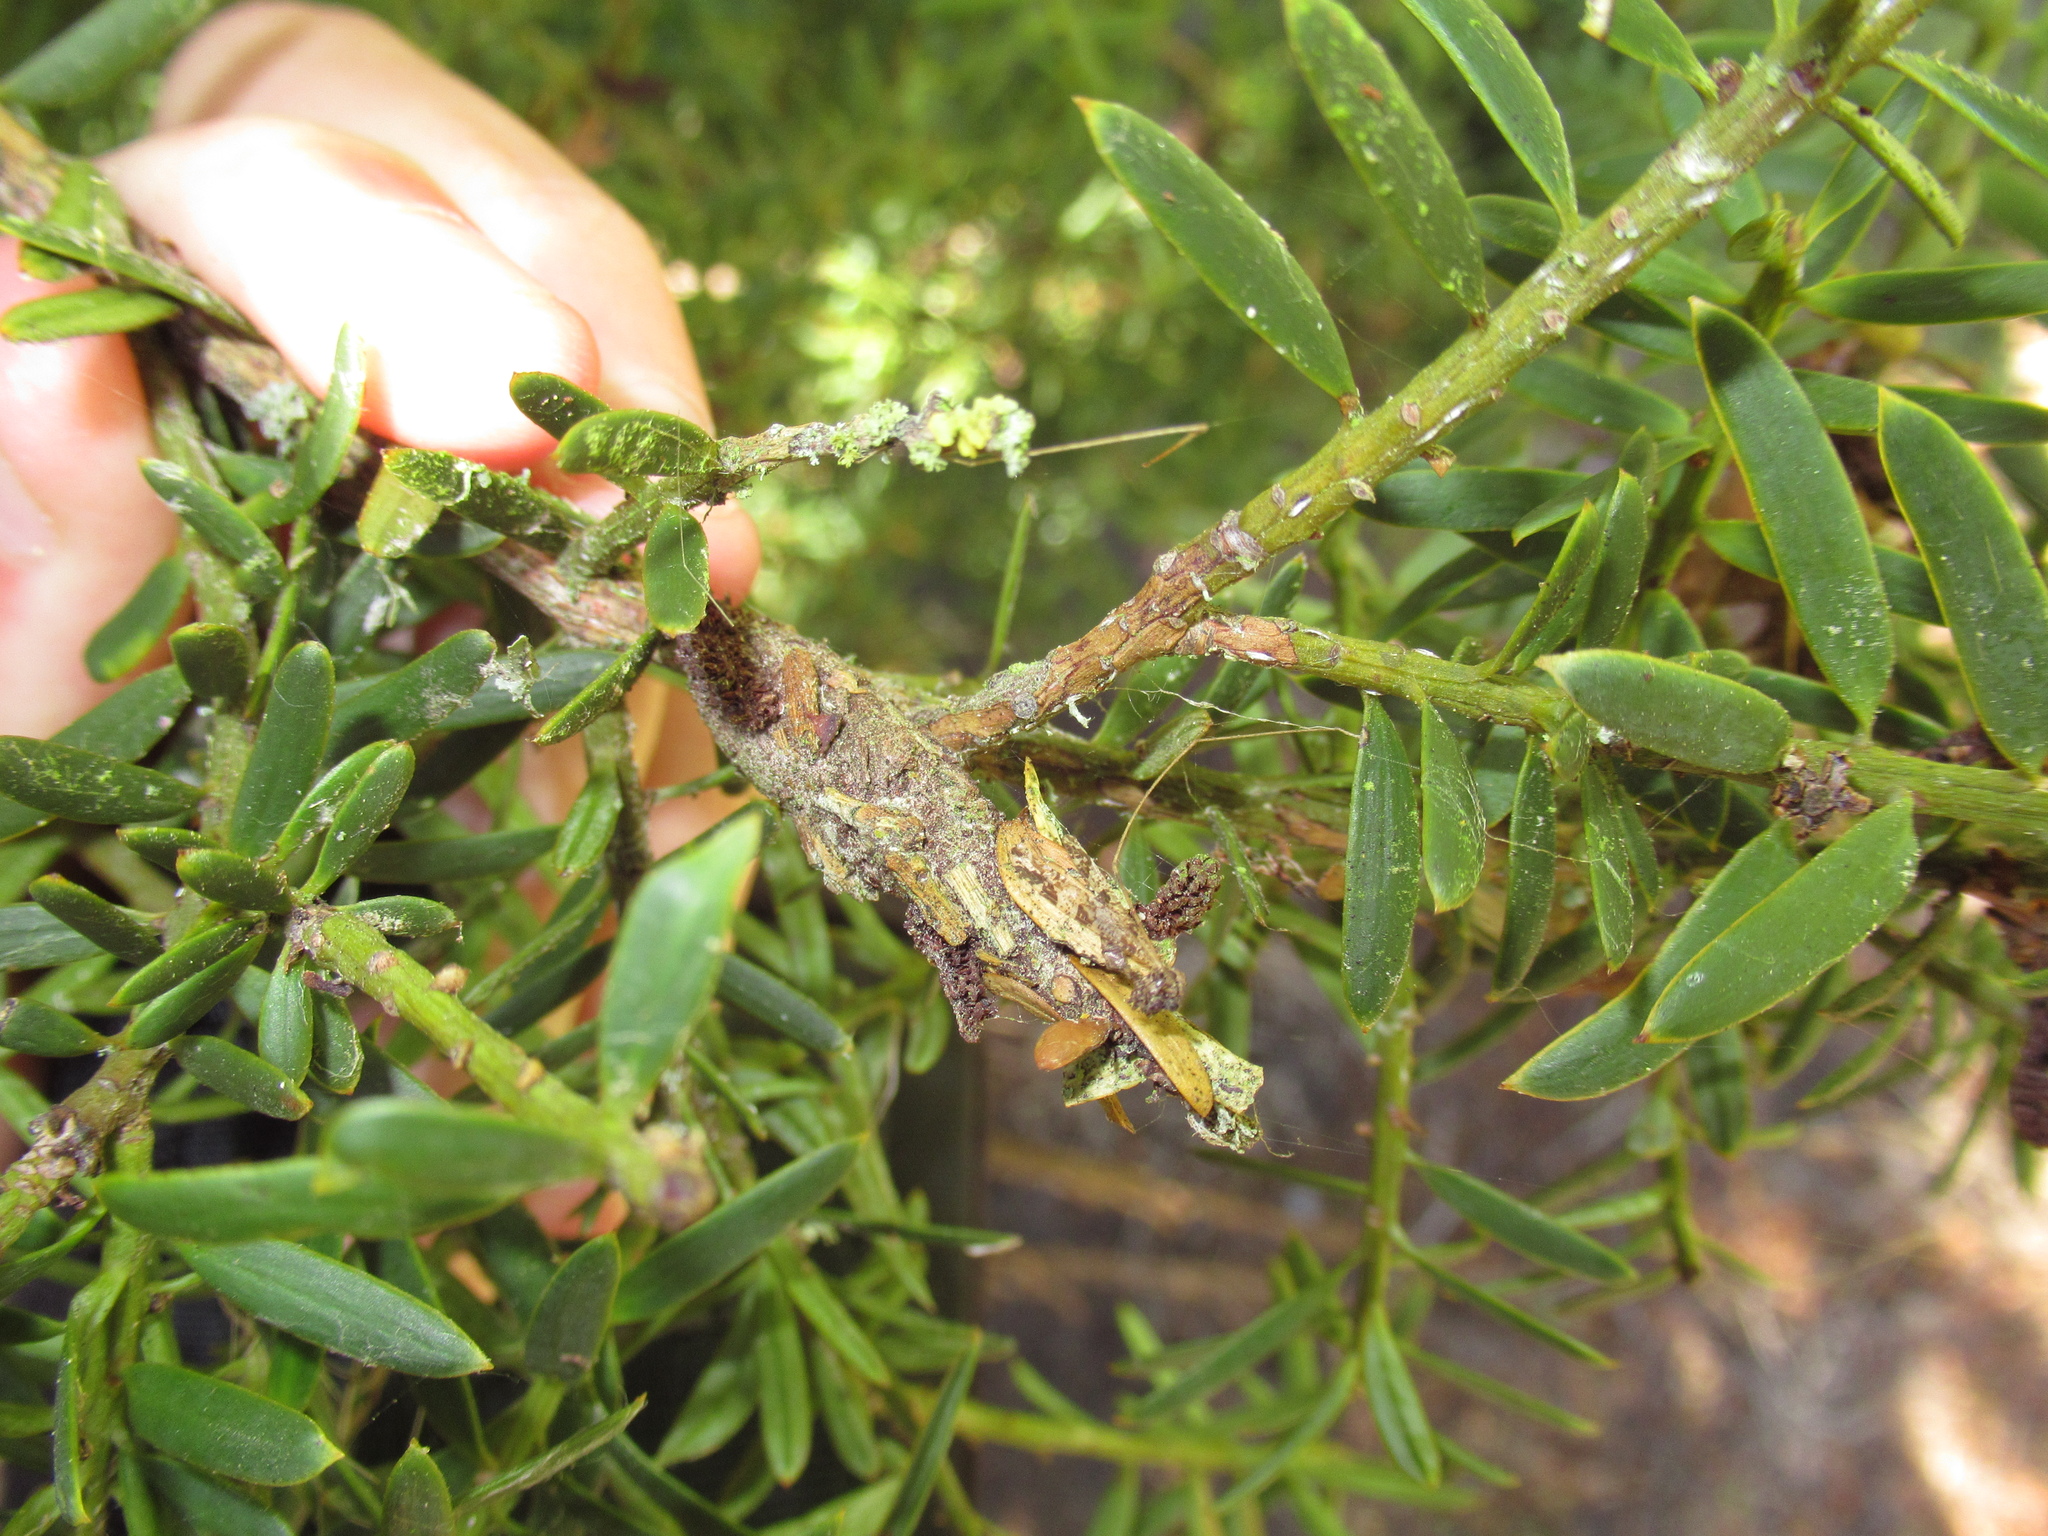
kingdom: Animalia
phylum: Arthropoda
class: Insecta
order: Lepidoptera
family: Psychidae
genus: Liothula
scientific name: Liothula omnivora
